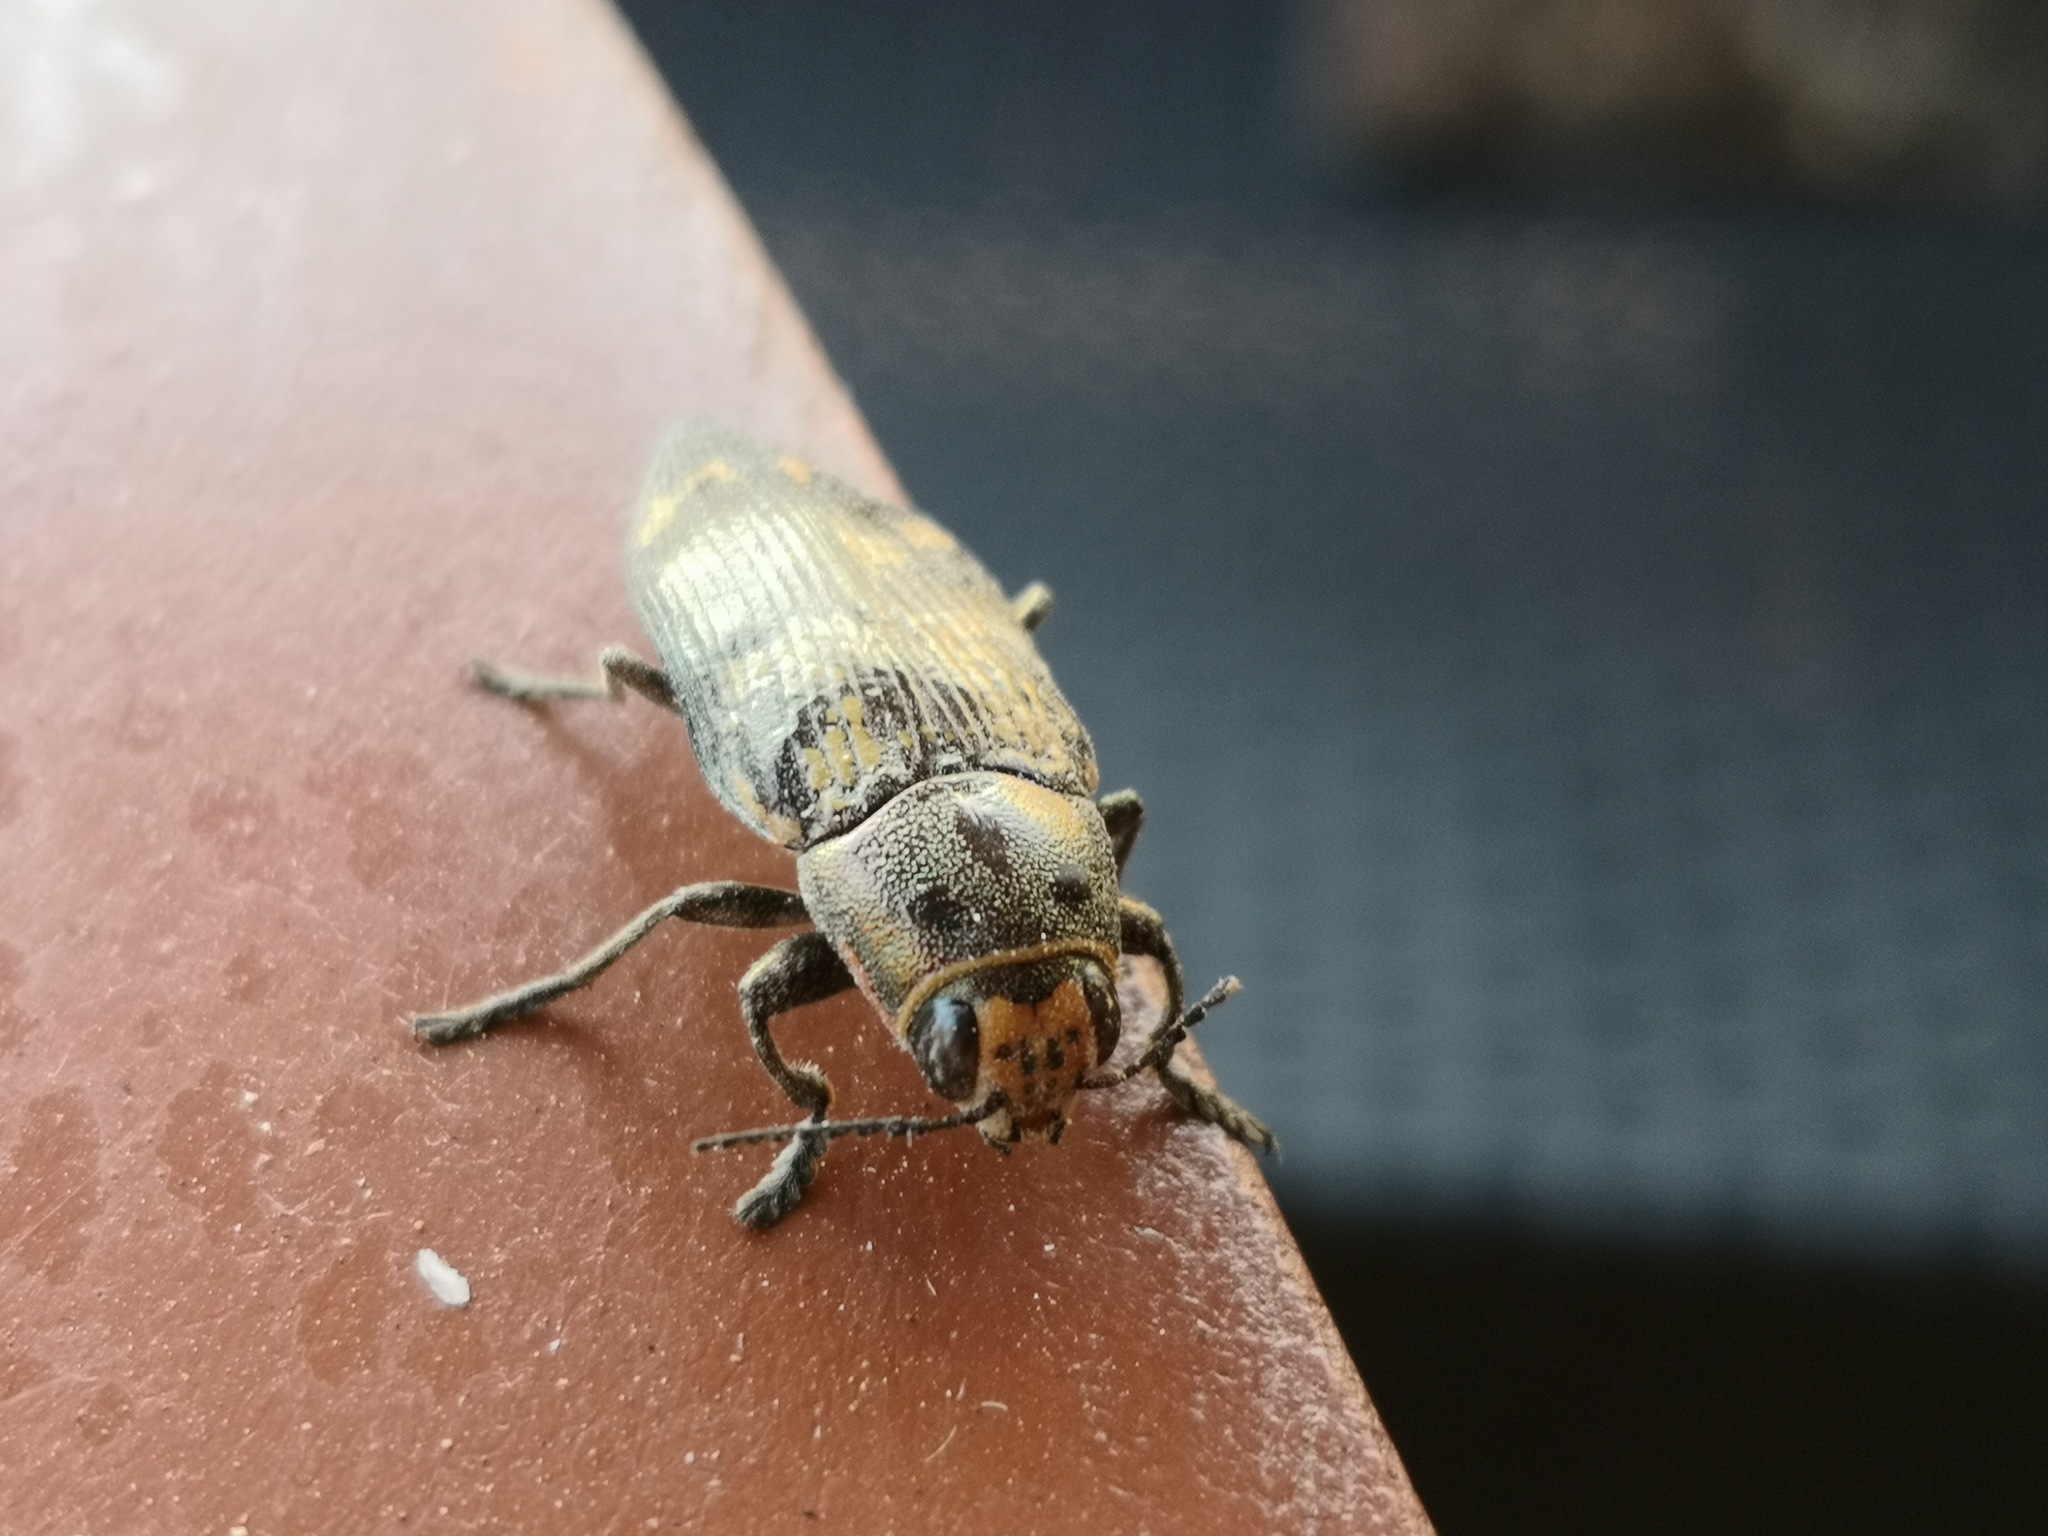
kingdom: Animalia
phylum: Arthropoda
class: Insecta
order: Coleoptera
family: Buprestidae
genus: Buprestis
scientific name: Buprestis bertheloti
